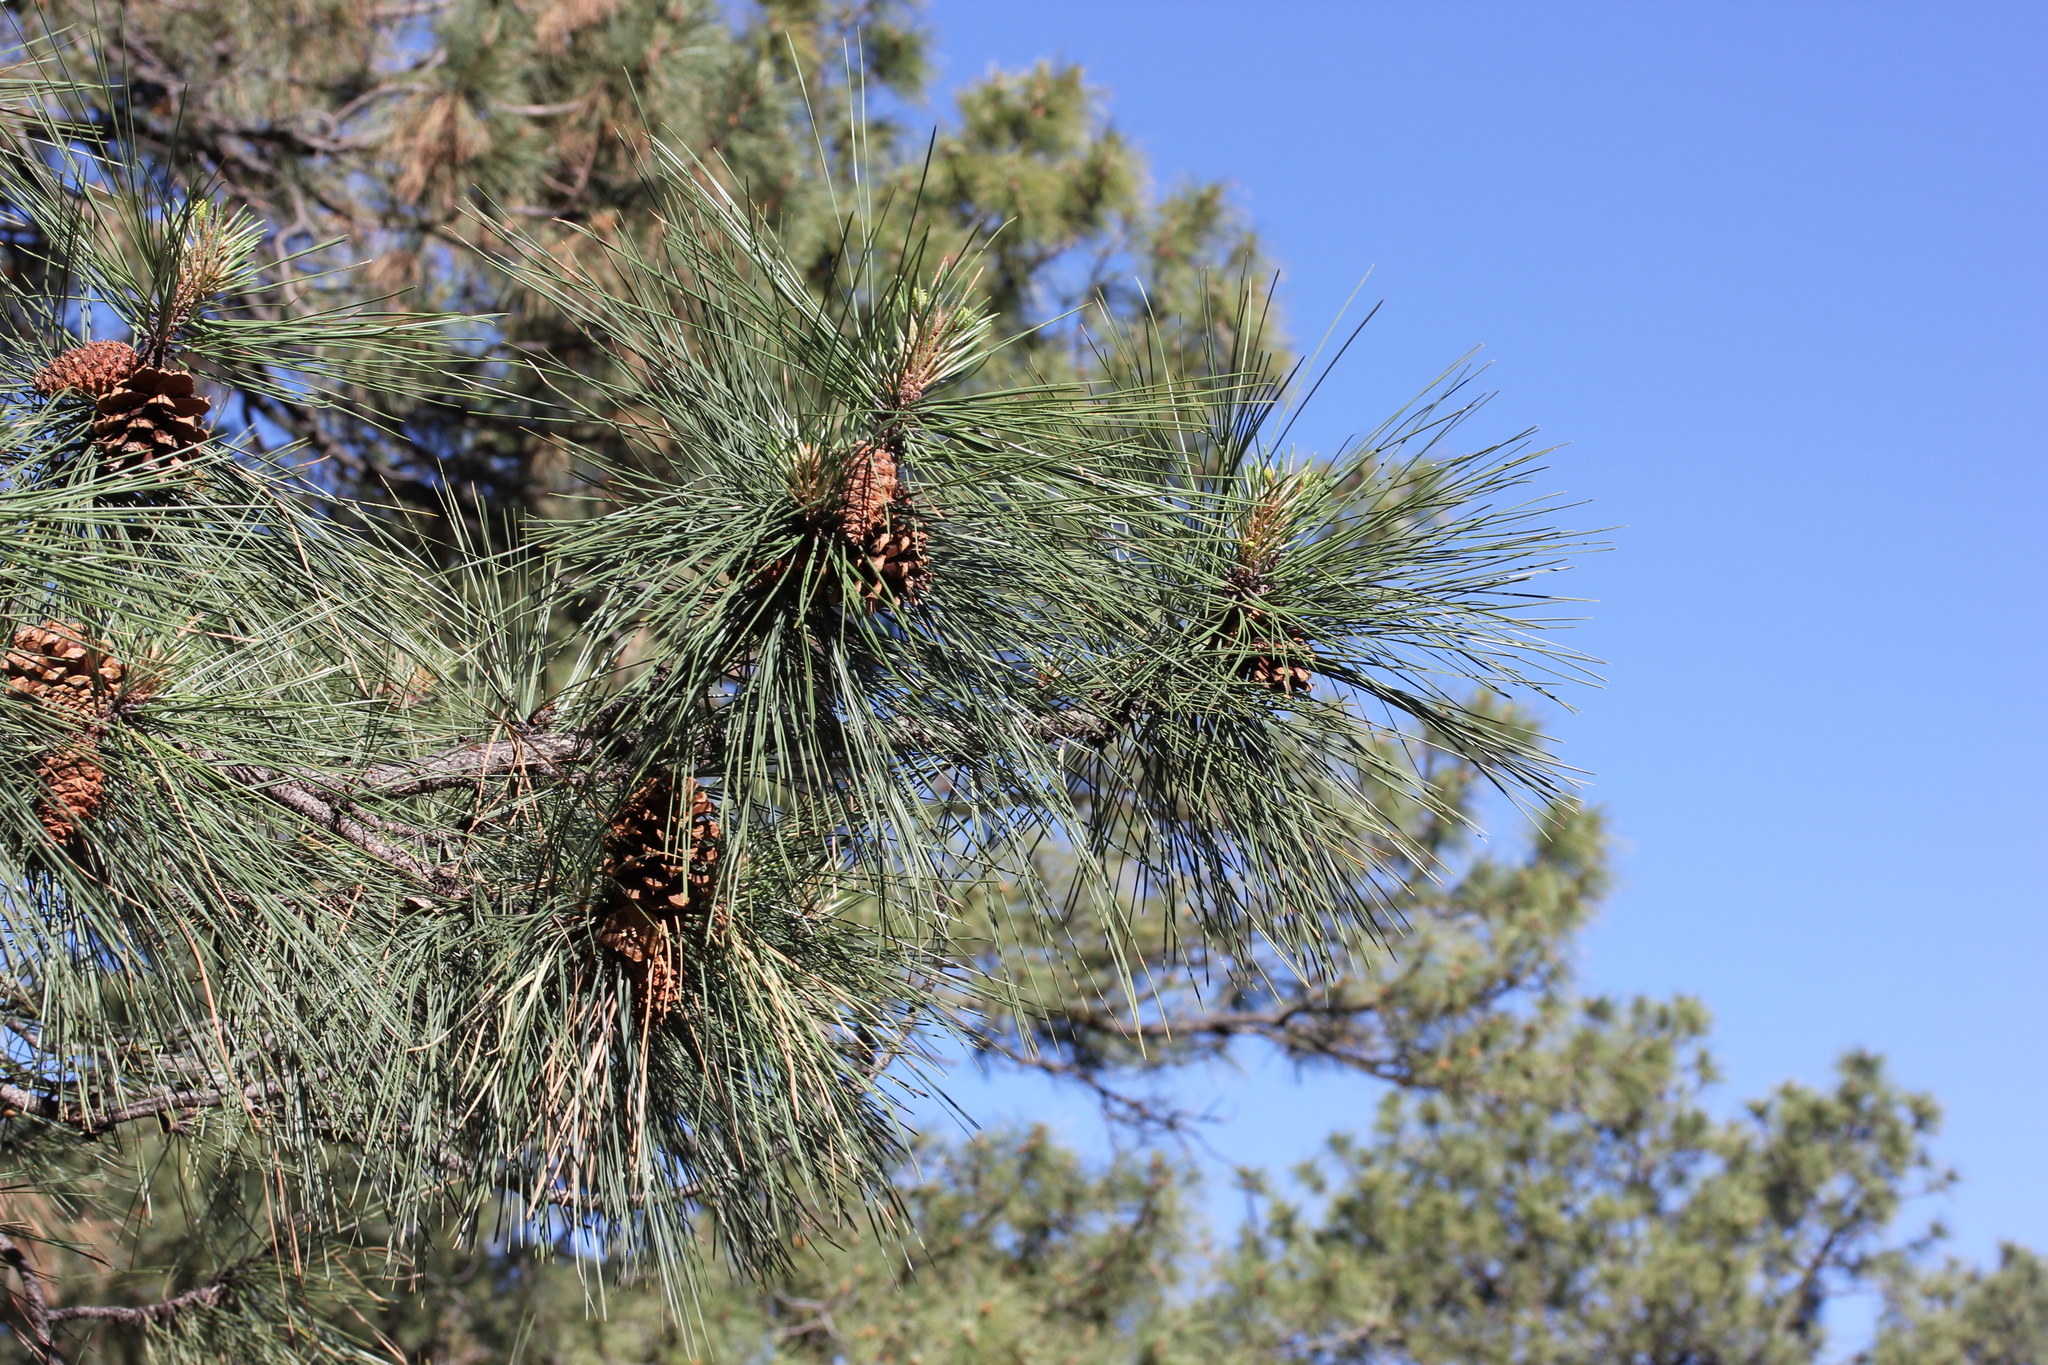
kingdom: Plantae
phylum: Tracheophyta
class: Pinopsida
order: Pinales
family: Pinaceae
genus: Pinus
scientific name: Pinus ponderosa
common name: Western yellow-pine
